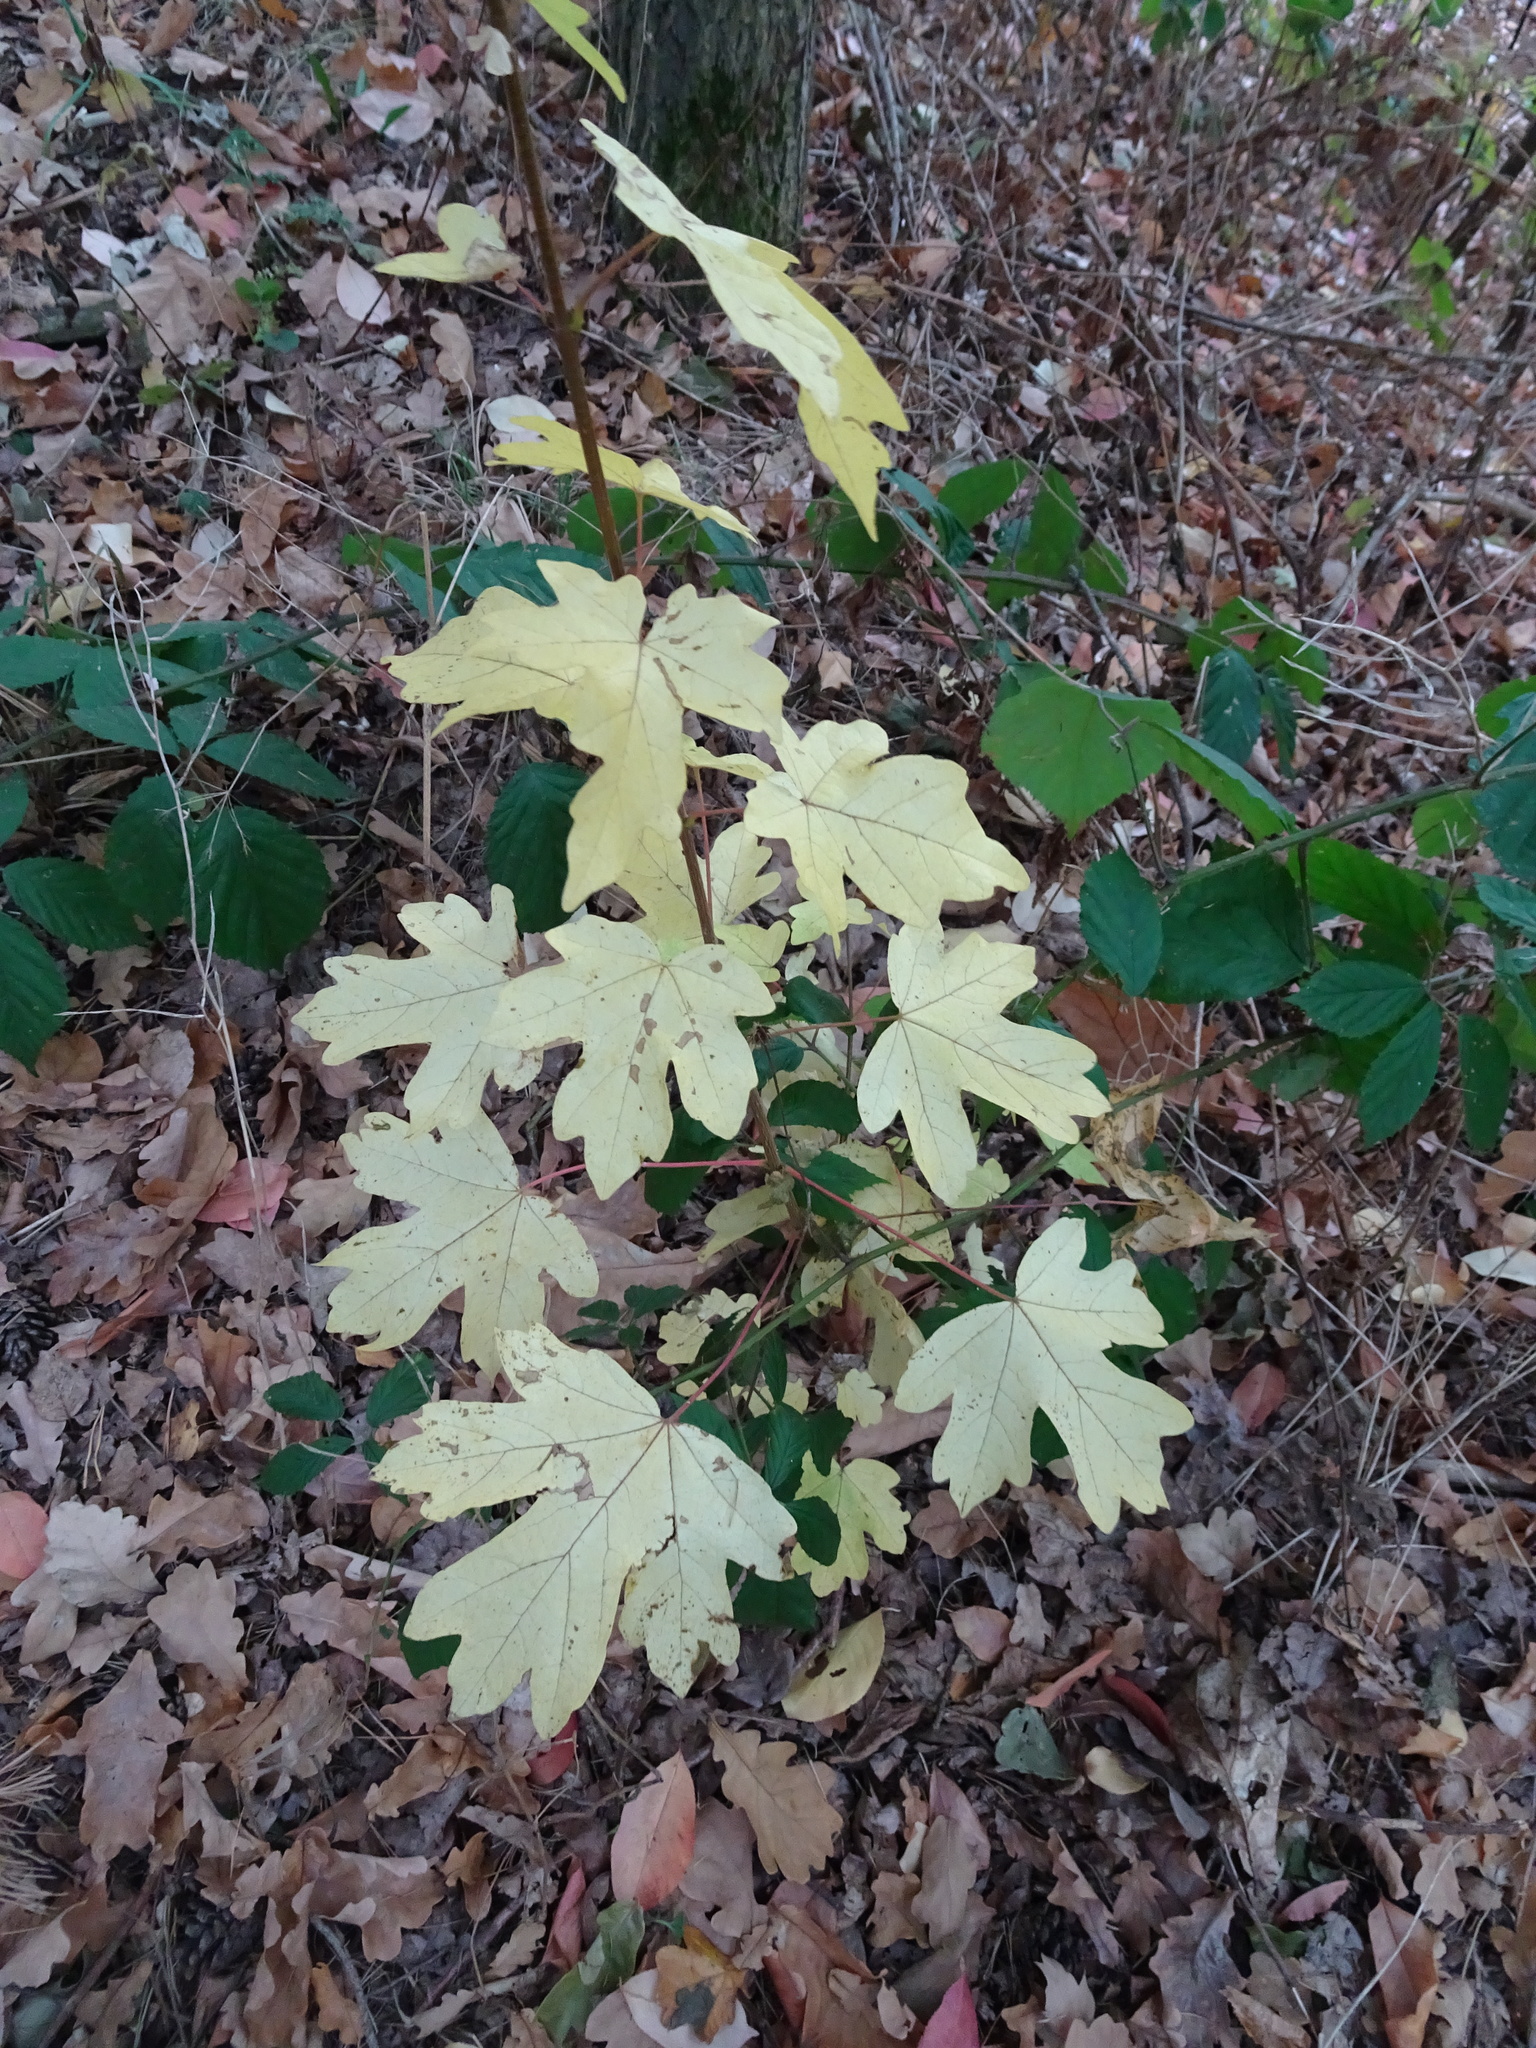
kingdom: Plantae
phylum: Tracheophyta
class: Magnoliopsida
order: Sapindales
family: Sapindaceae
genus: Acer
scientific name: Acer campestre
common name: Field maple
